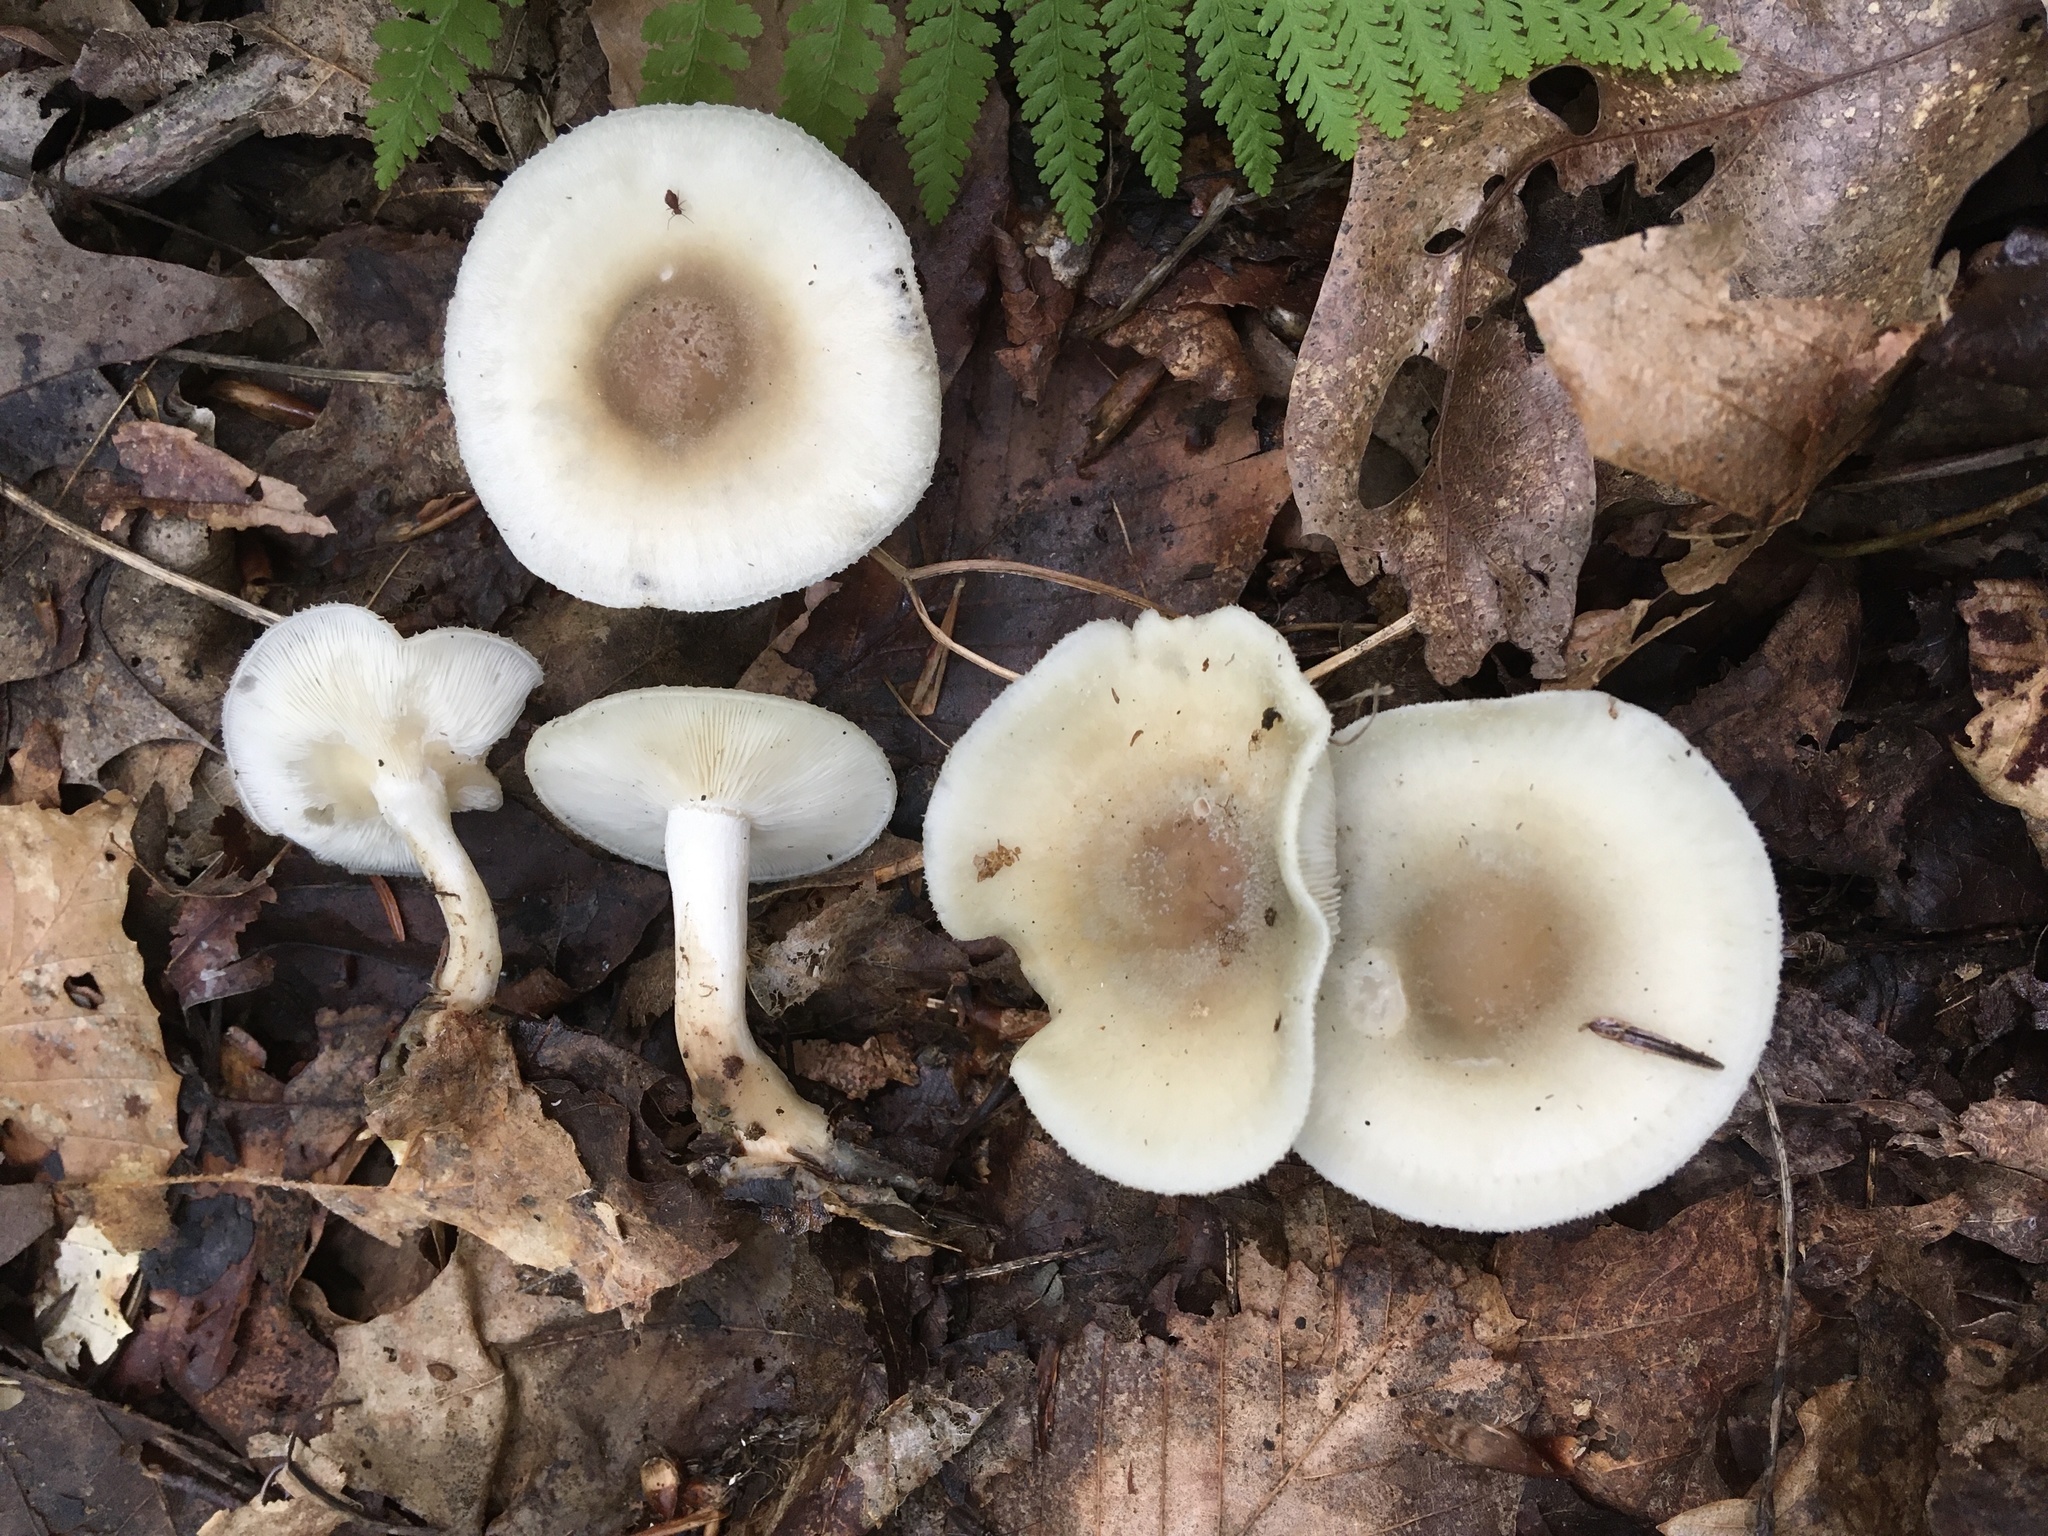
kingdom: Fungi
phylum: Basidiomycota
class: Agaricomycetes
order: Agaricales
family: Tricholomataceae
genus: Collybia
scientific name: Collybia
